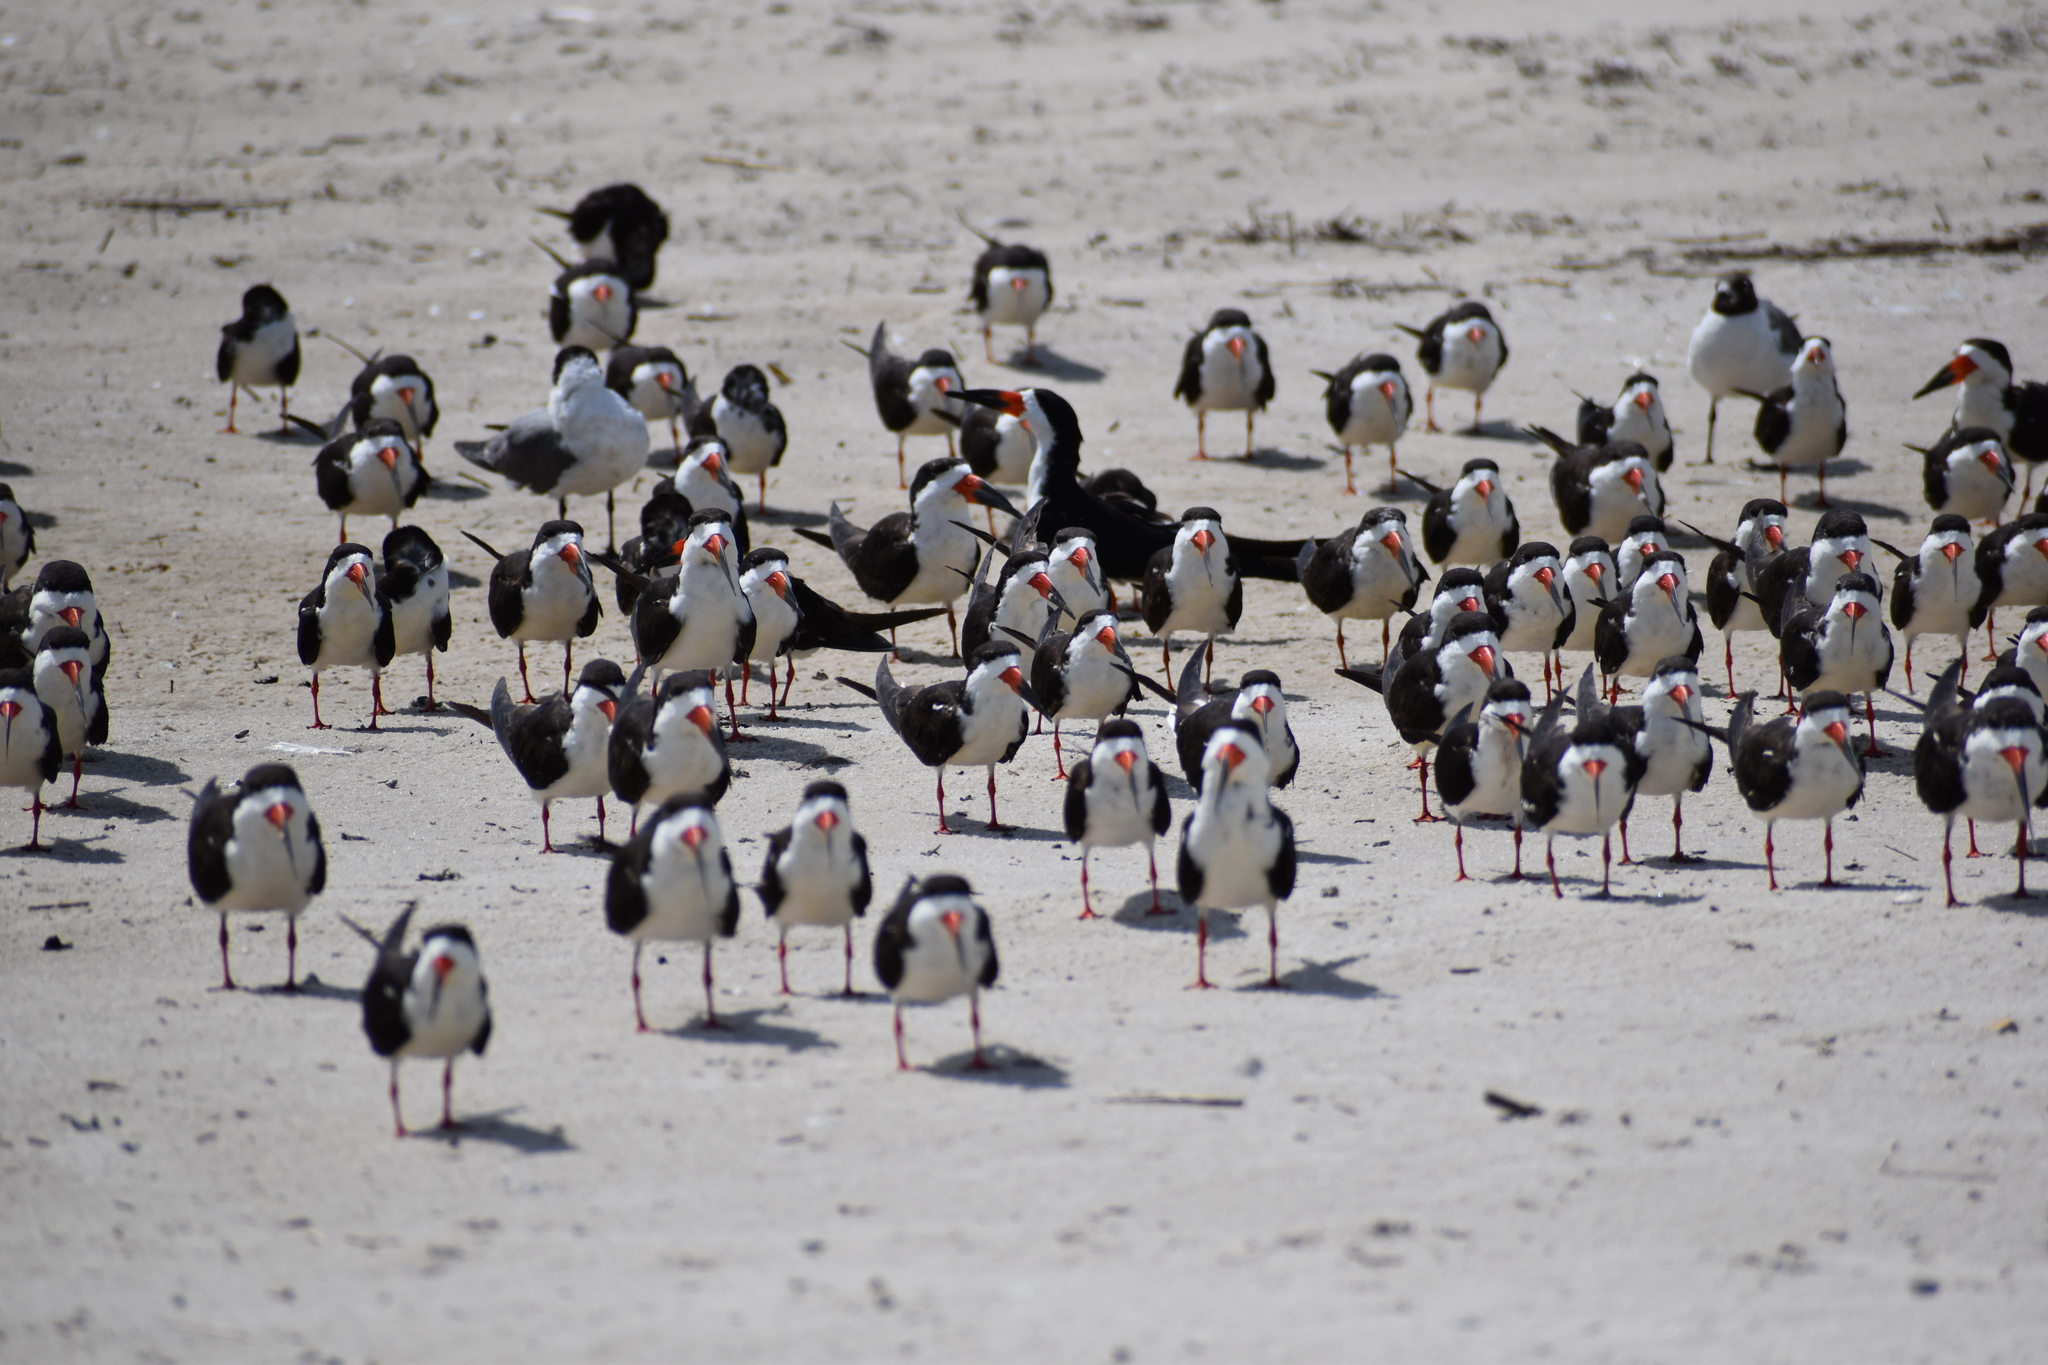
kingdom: Animalia
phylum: Chordata
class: Aves
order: Charadriiformes
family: Laridae
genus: Rynchops
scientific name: Rynchops niger
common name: Black skimmer
